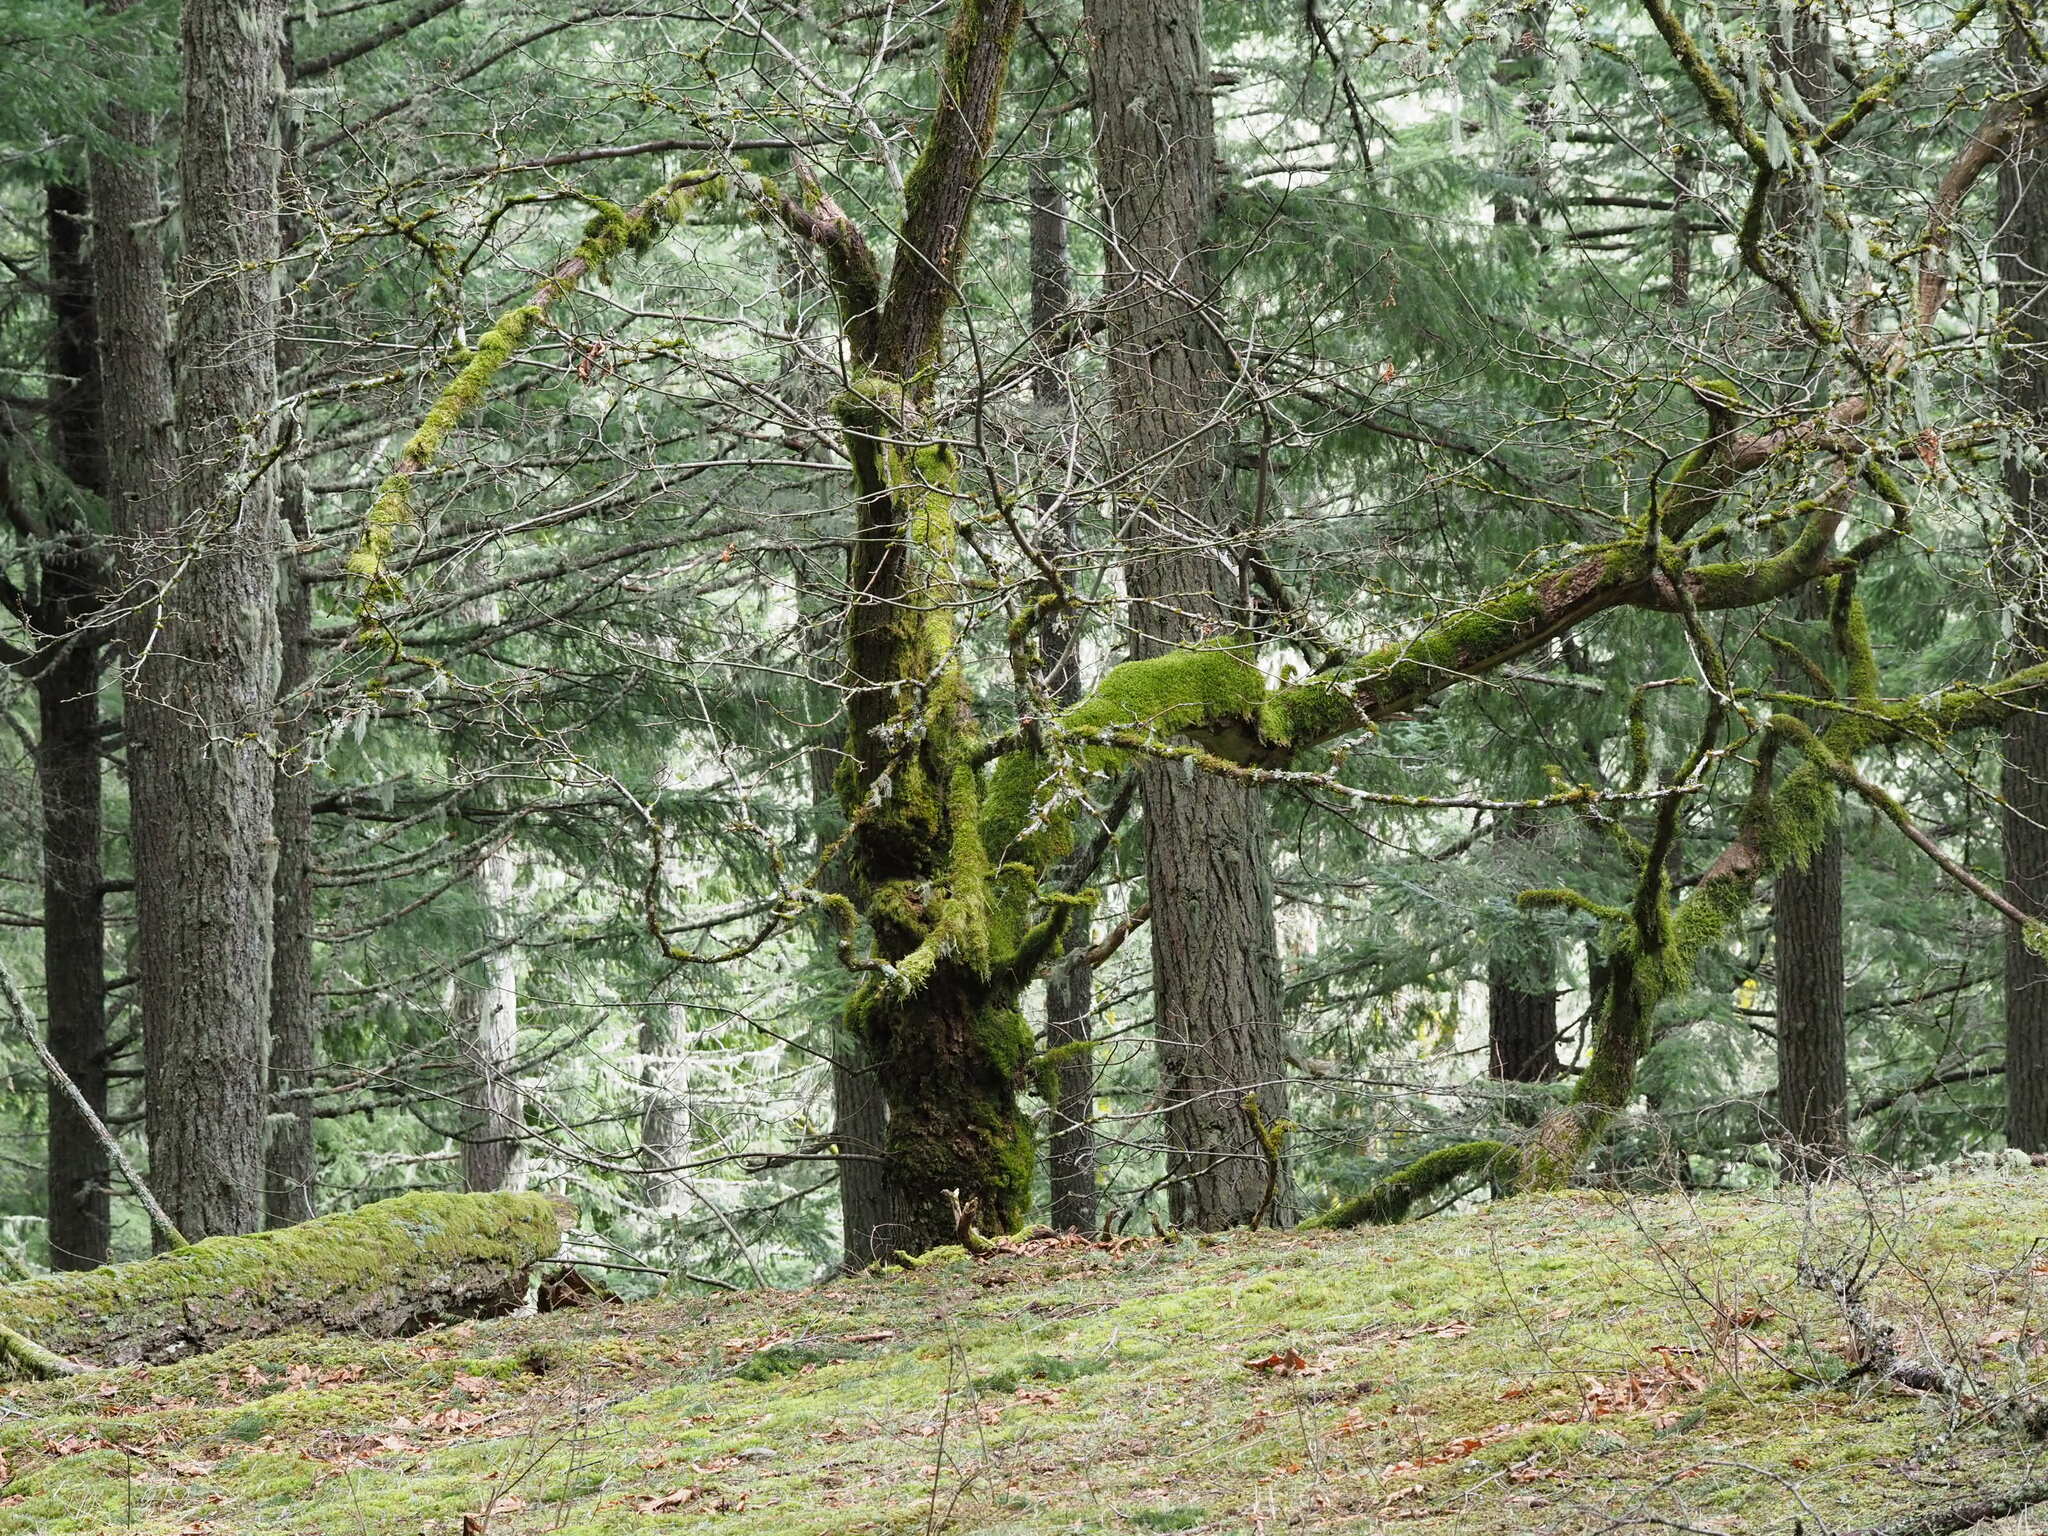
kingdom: Plantae
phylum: Tracheophyta
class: Magnoliopsida
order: Fagales
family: Fagaceae
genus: Quercus
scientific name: Quercus garryana
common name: Garry oak
